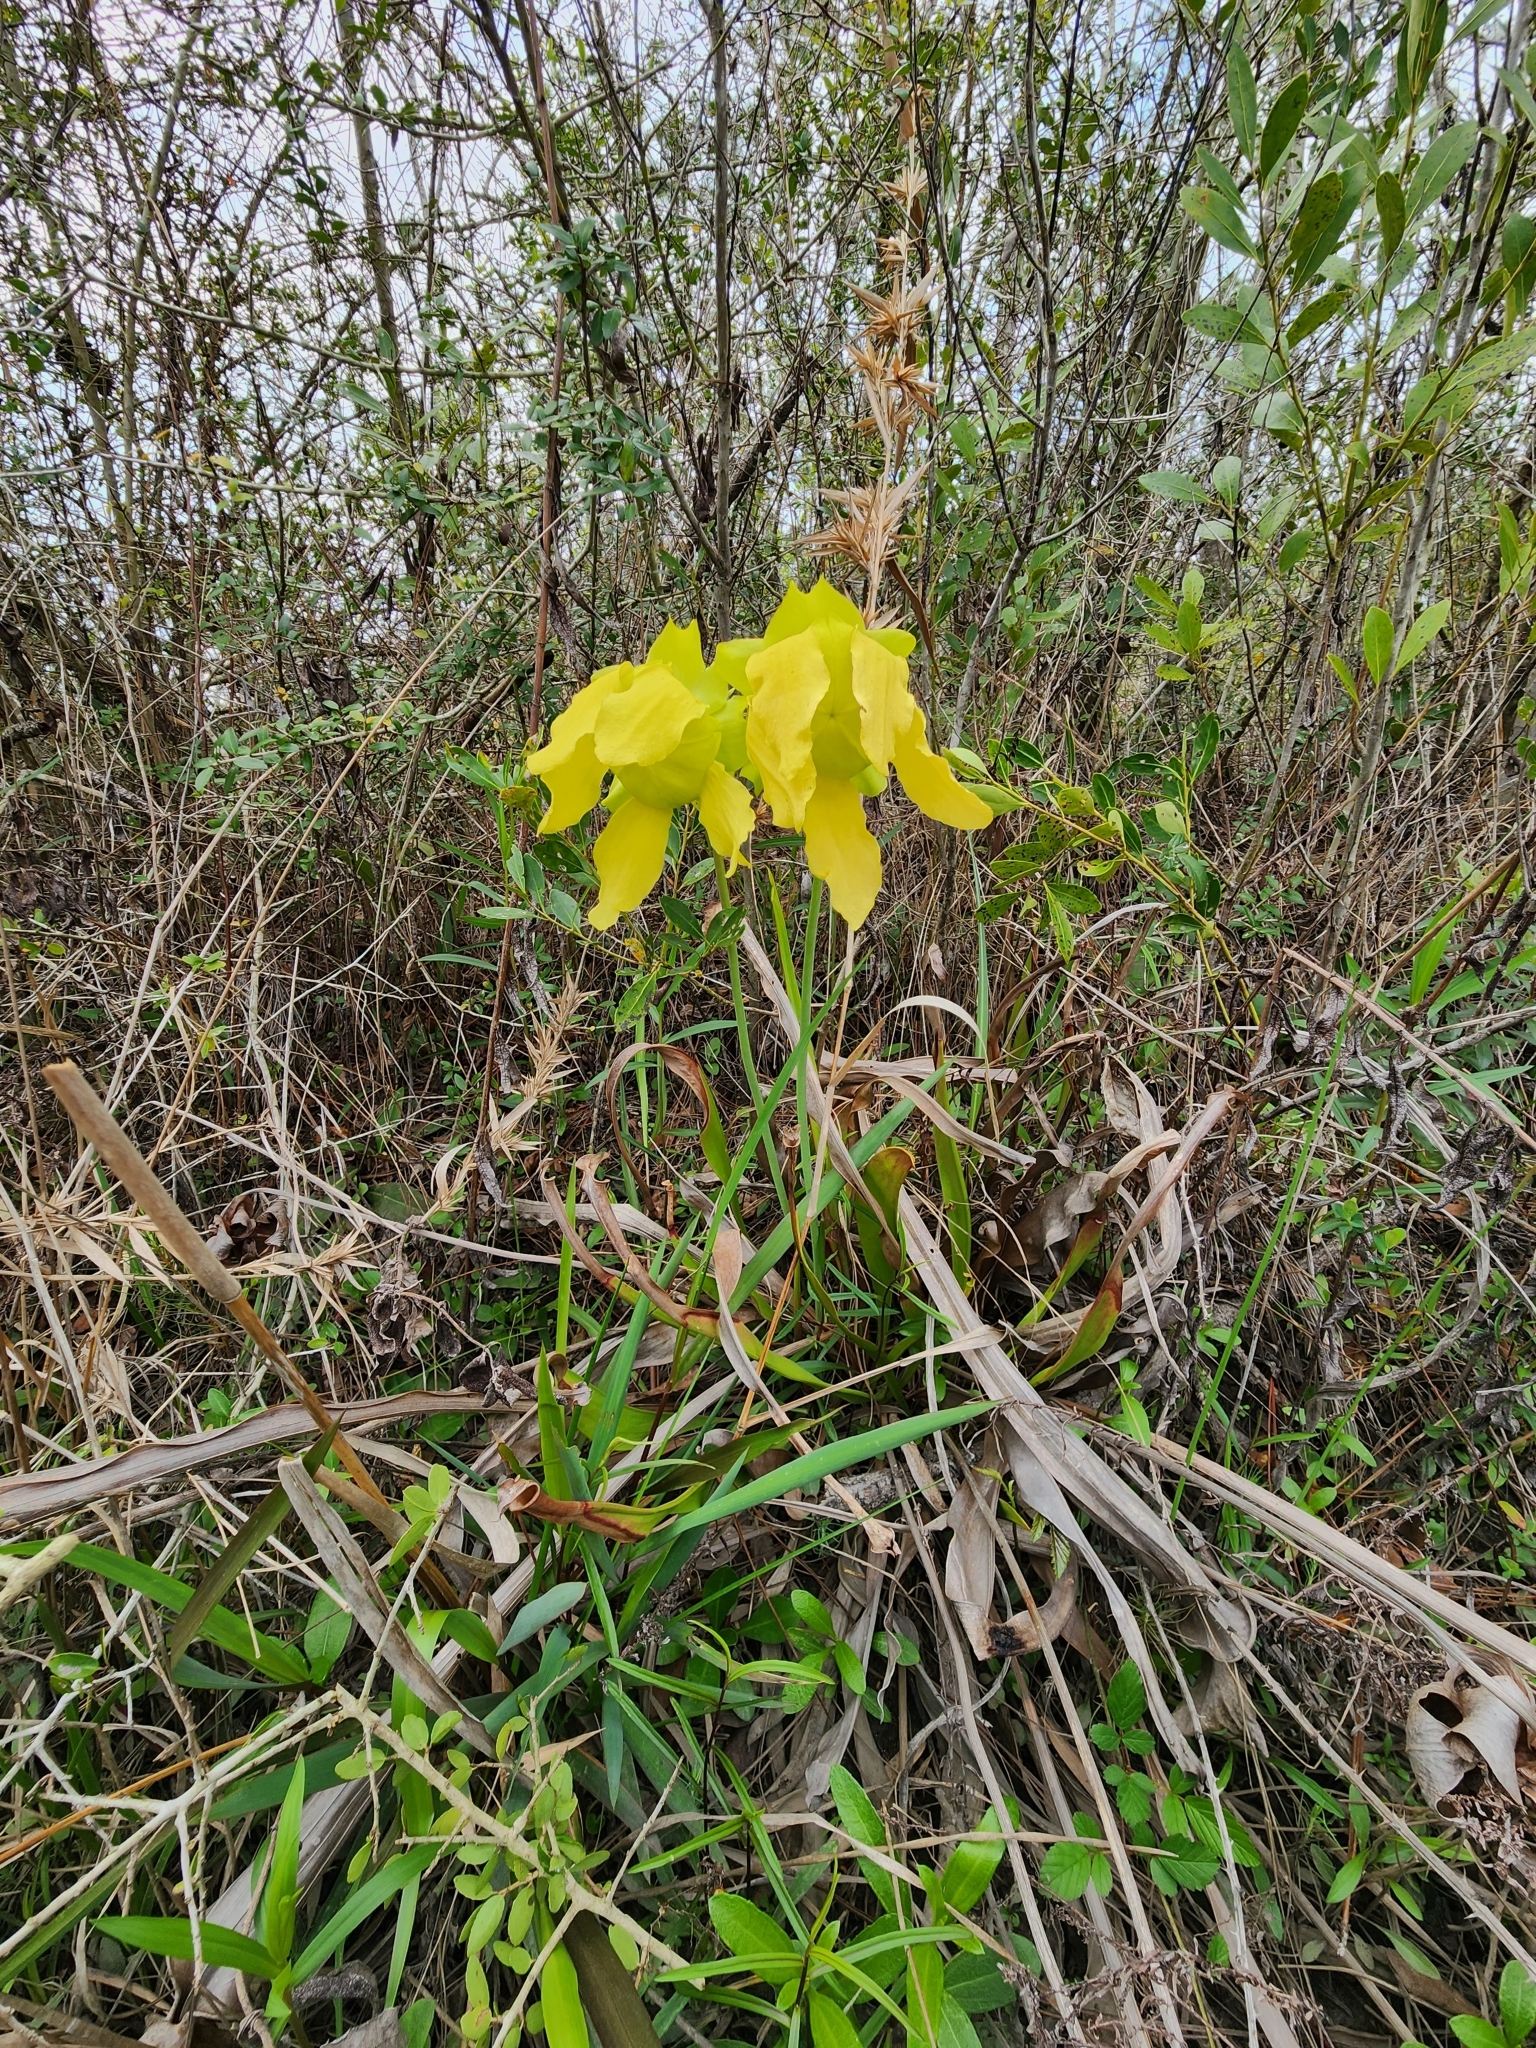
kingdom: Plantae
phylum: Tracheophyta
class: Magnoliopsida
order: Ericales
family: Sarraceniaceae
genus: Sarracenia
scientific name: Sarracenia flava
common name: Trumpets
